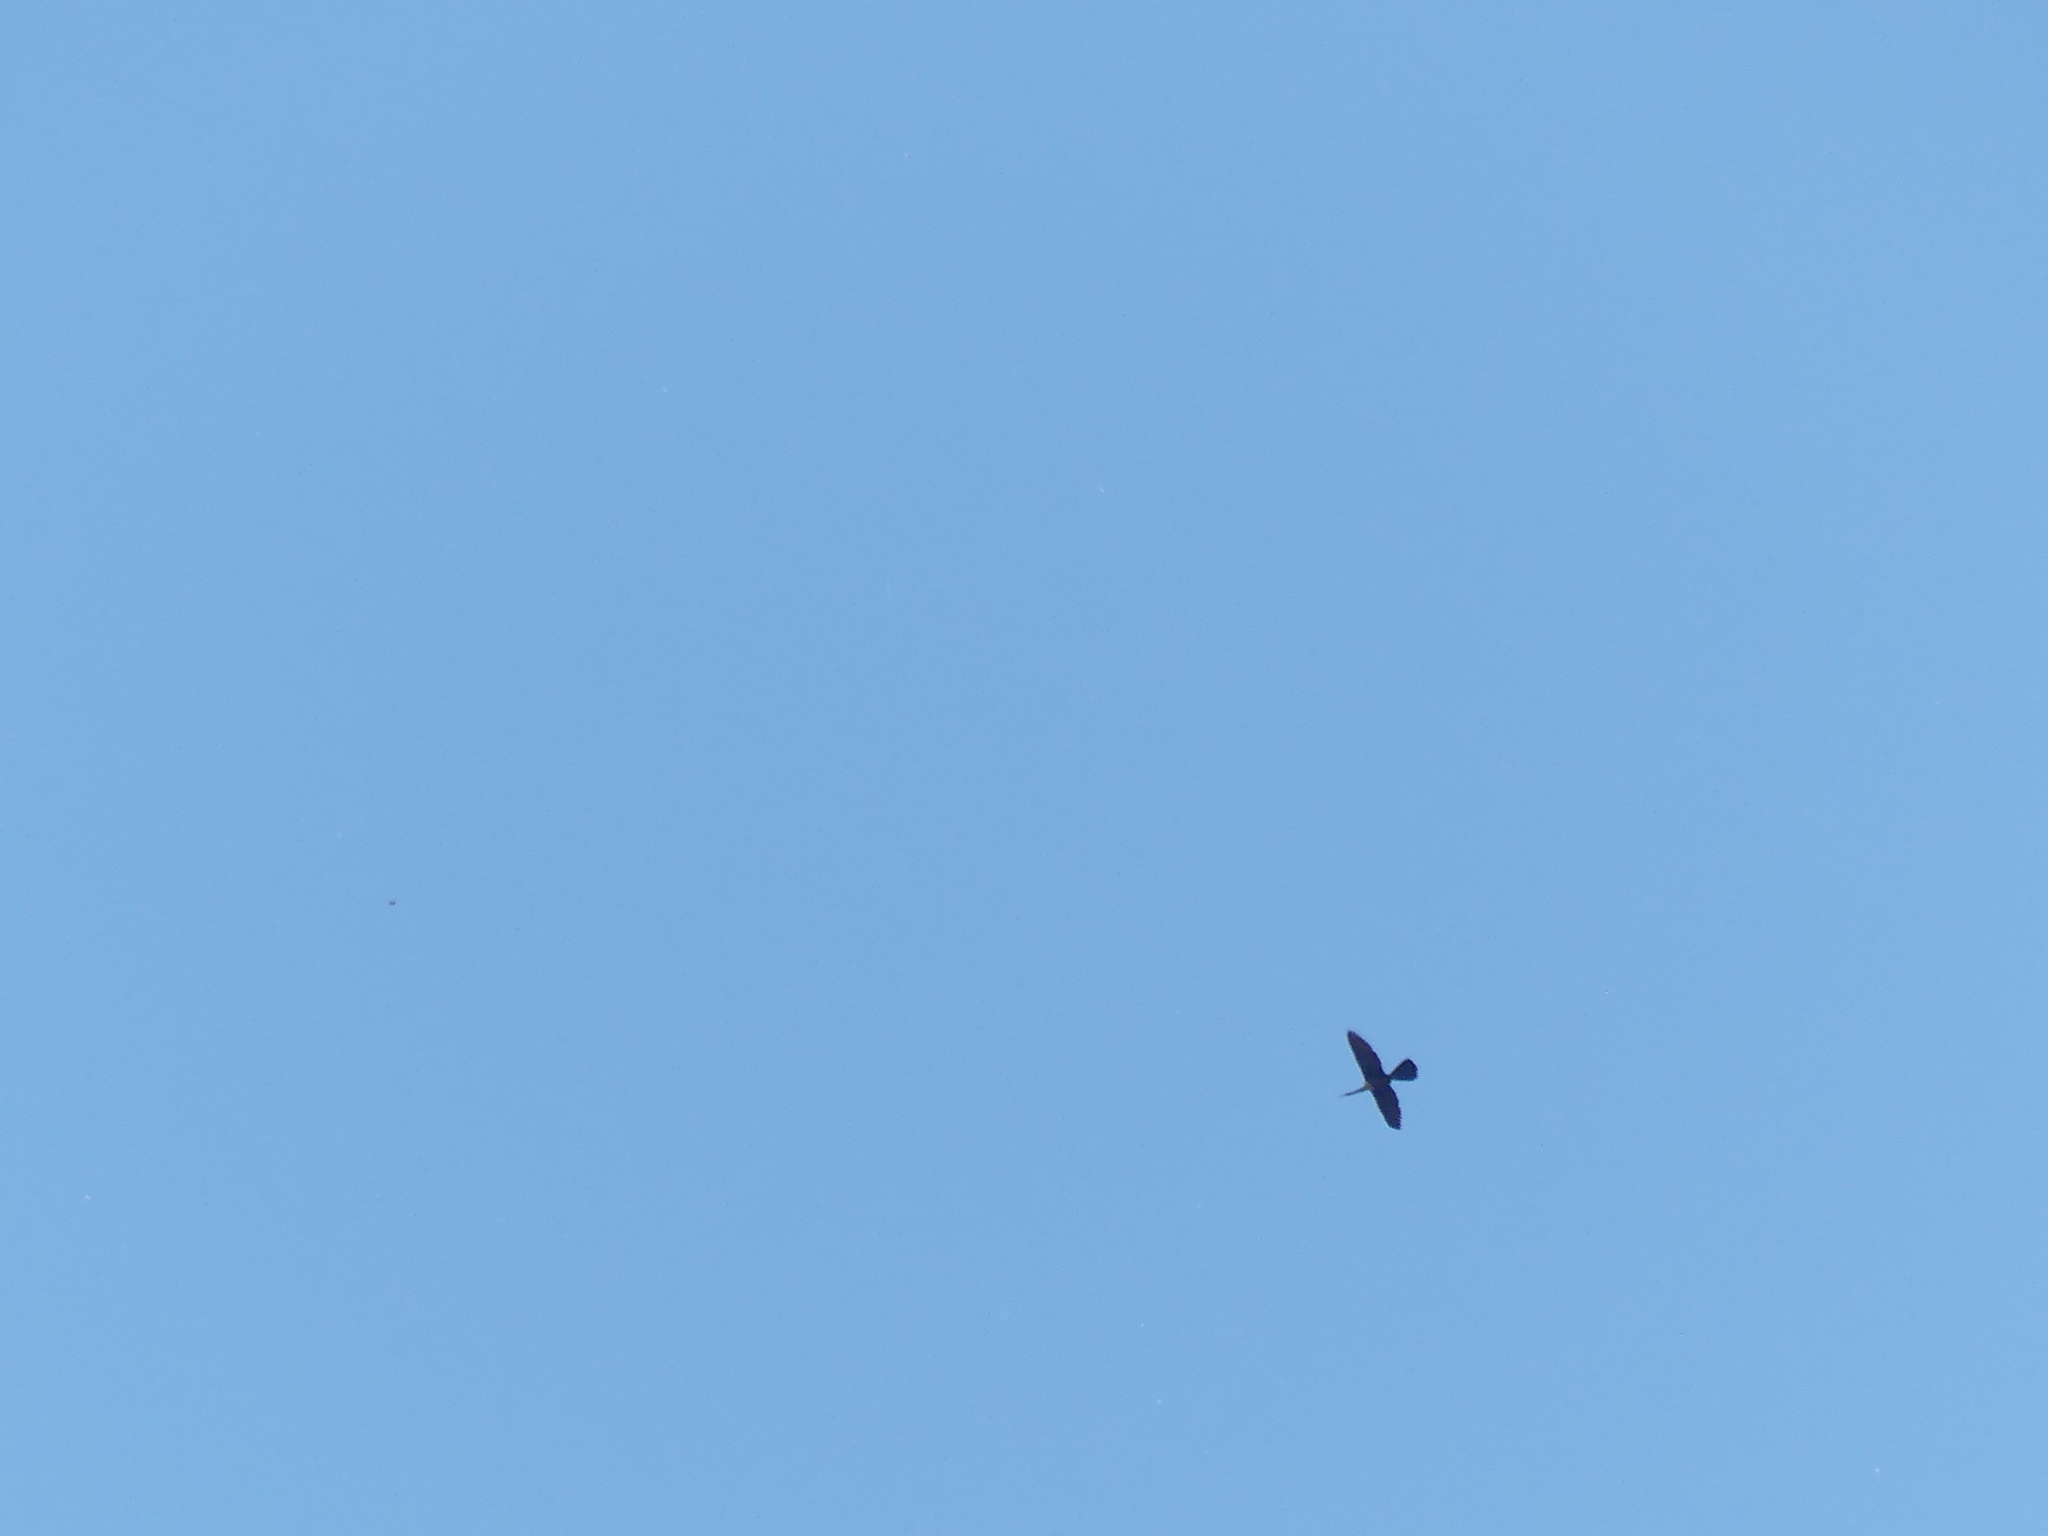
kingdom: Animalia
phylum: Chordata
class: Aves
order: Suliformes
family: Anhingidae
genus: Anhinga
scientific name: Anhinga anhinga
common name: Anhinga
